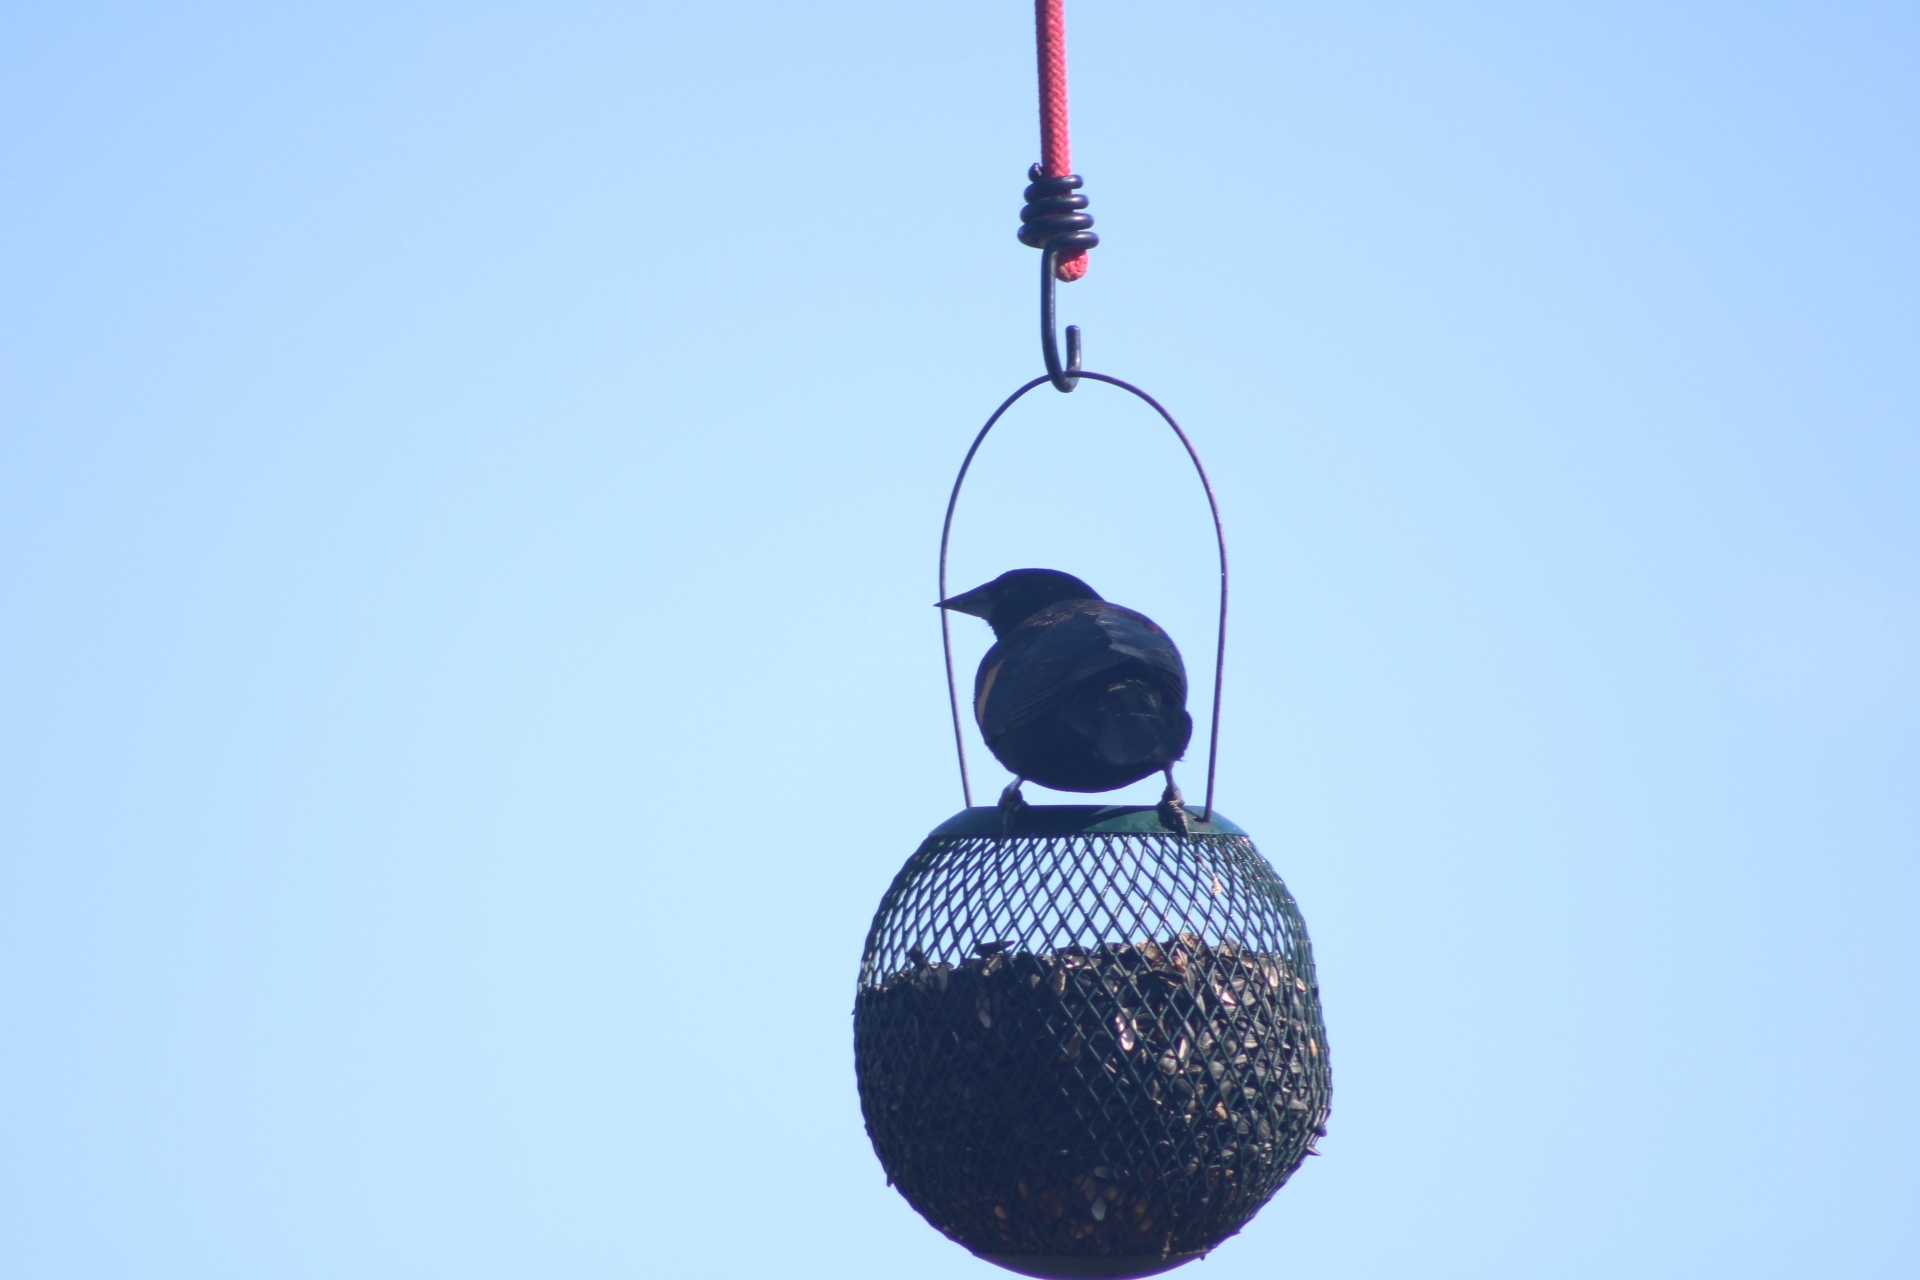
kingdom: Animalia
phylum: Chordata
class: Aves
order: Passeriformes
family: Icteridae
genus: Agelaius
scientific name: Agelaius phoeniceus
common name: Red-winged blackbird
